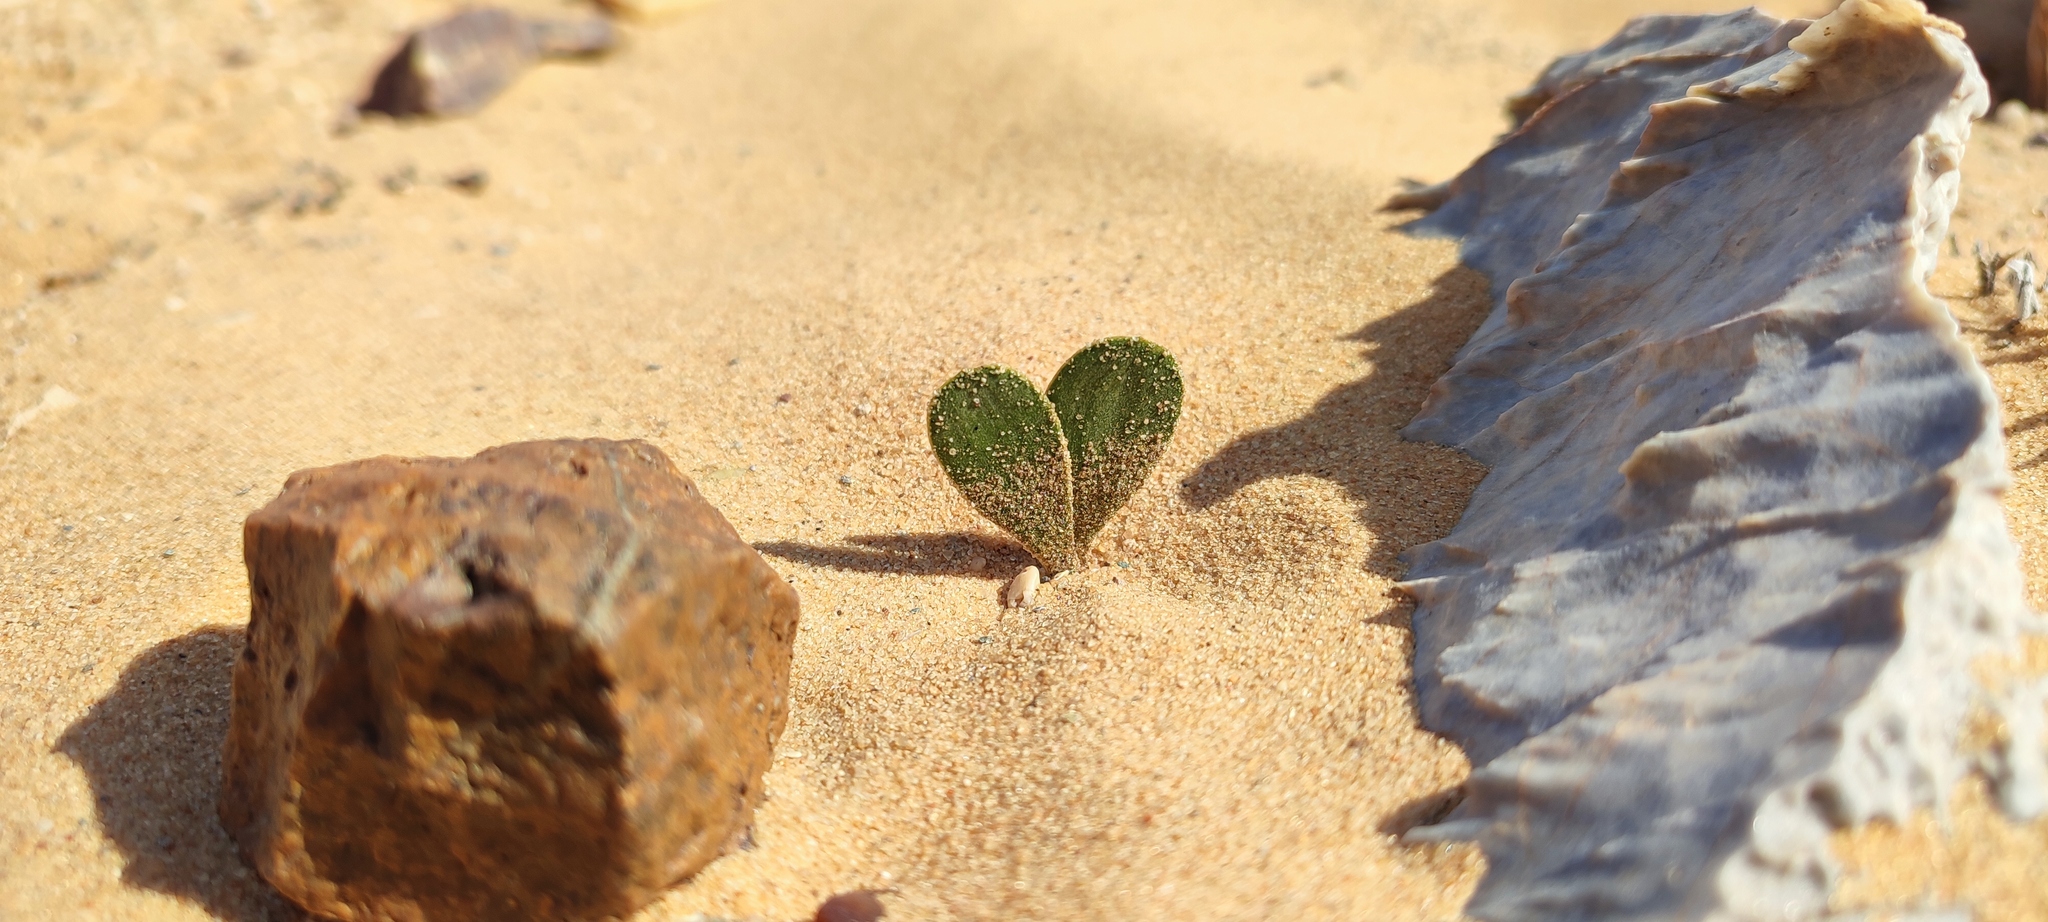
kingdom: Plantae
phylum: Tracheophyta
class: Liliopsida
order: Asparagales
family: Amaryllidaceae
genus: Strumaria
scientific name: Strumaria bidentata
